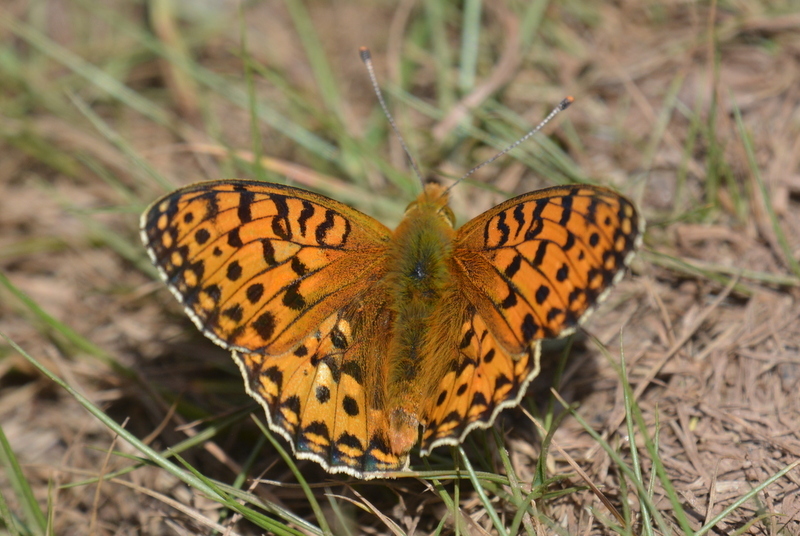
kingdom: Animalia
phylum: Arthropoda
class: Insecta
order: Lepidoptera
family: Nymphalidae
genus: Speyeria
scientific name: Speyeria aglaja
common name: Dark green fritillary
